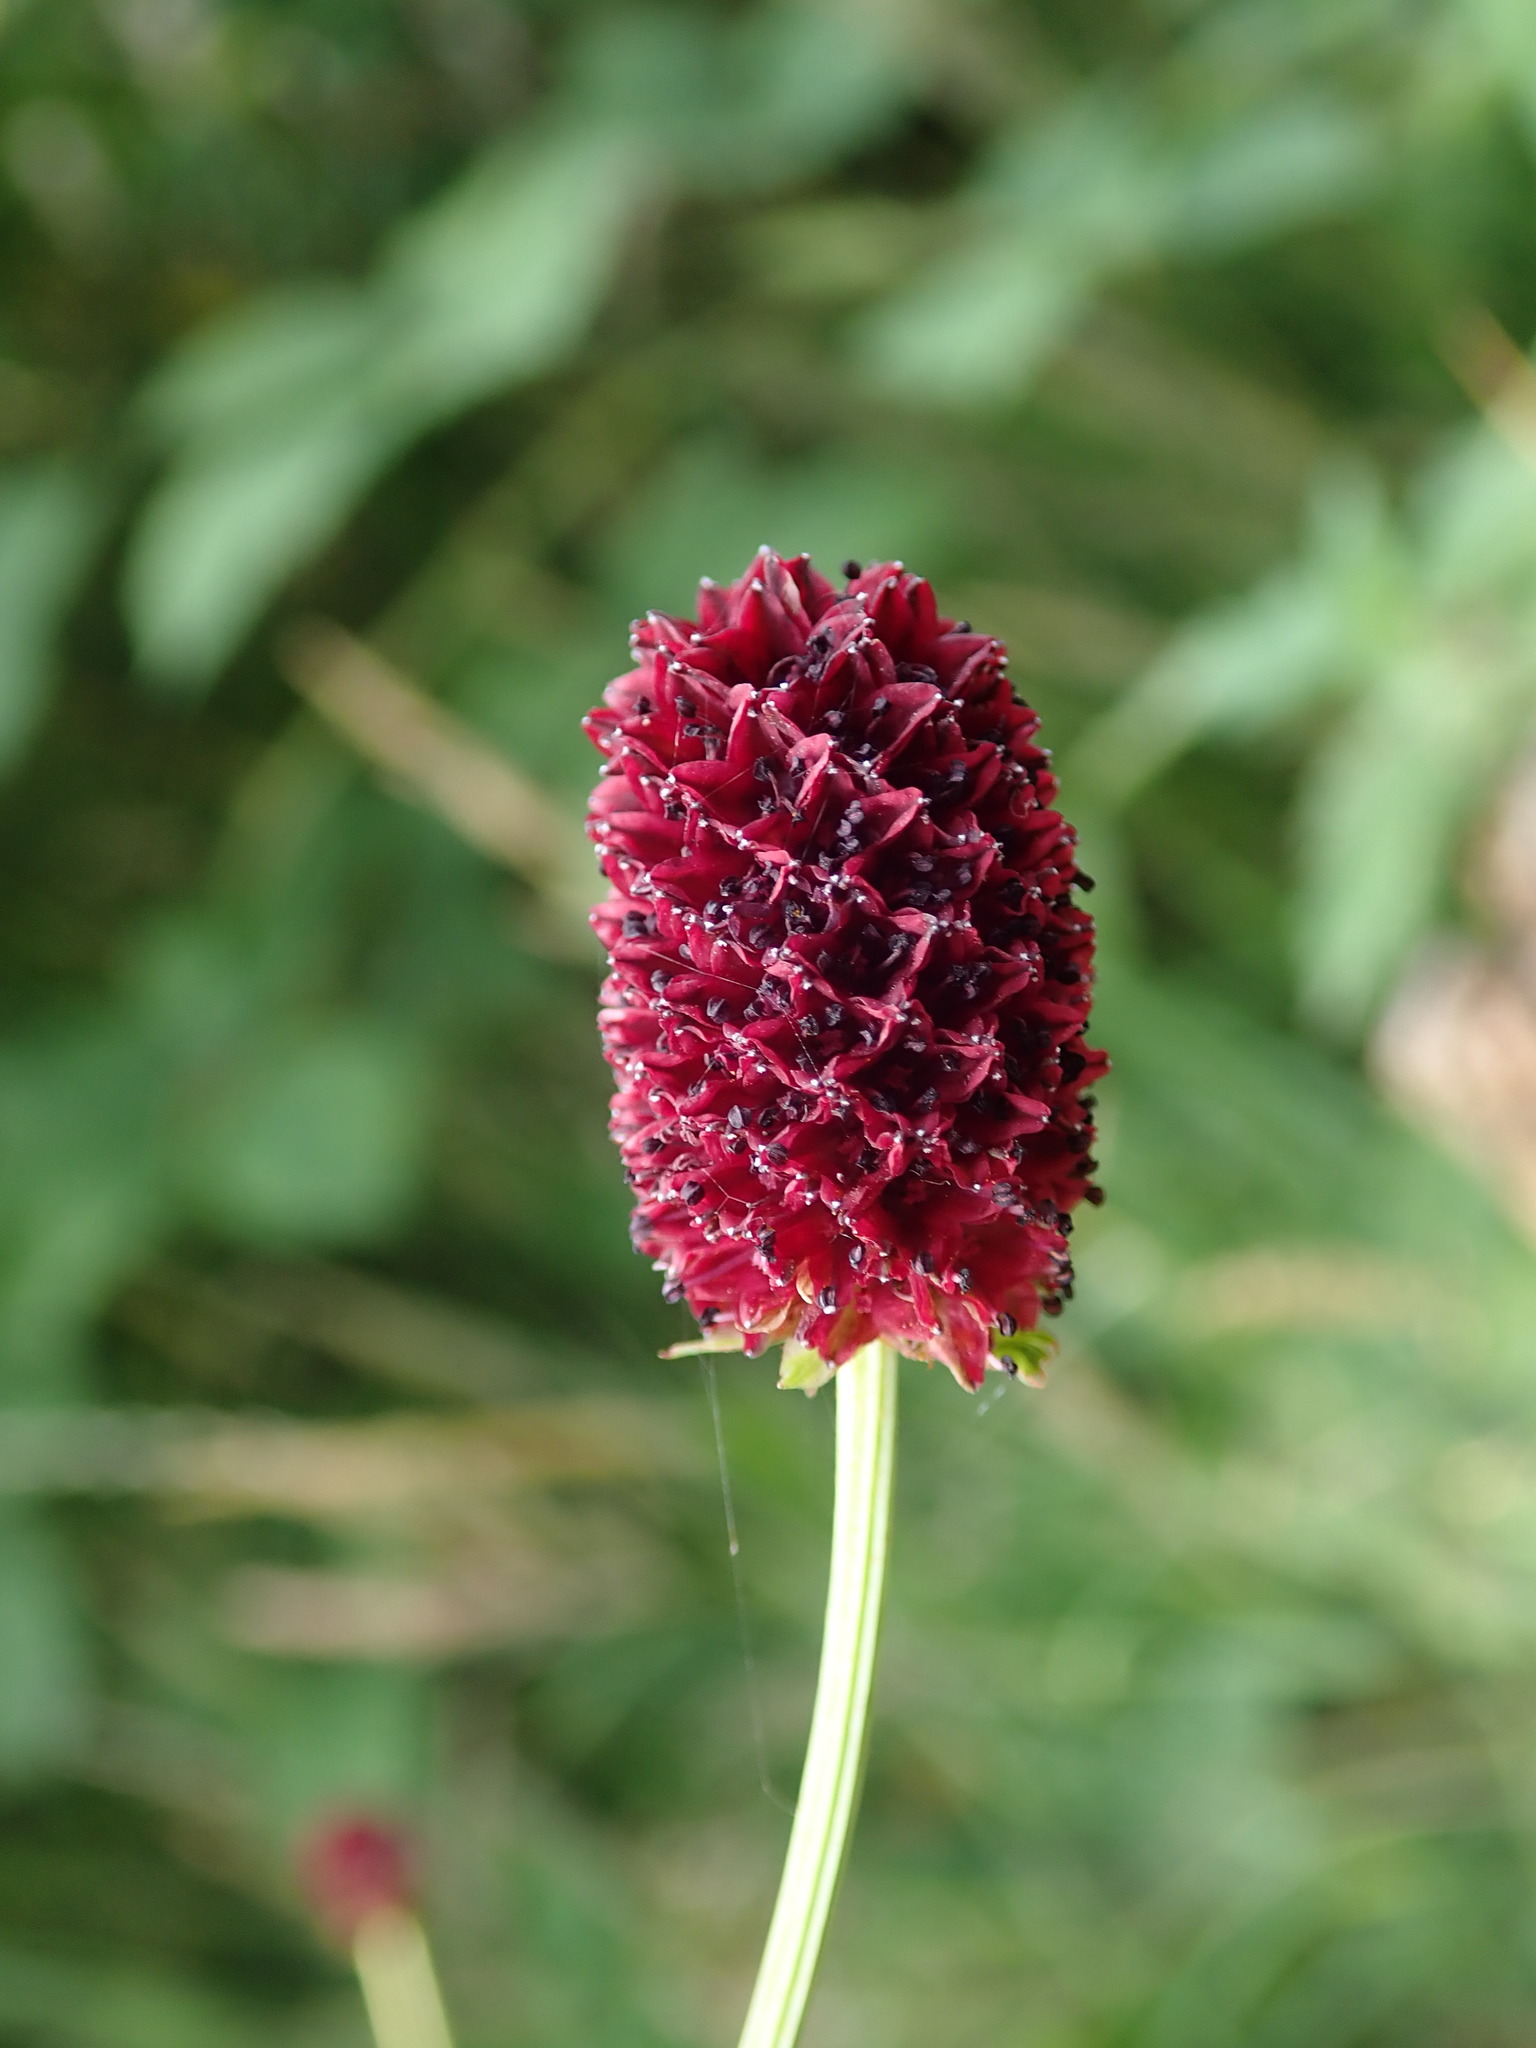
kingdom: Plantae
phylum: Tracheophyta
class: Magnoliopsida
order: Rosales
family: Rosaceae
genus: Sanguisorba
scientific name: Sanguisorba officinalis
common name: Great burnet
